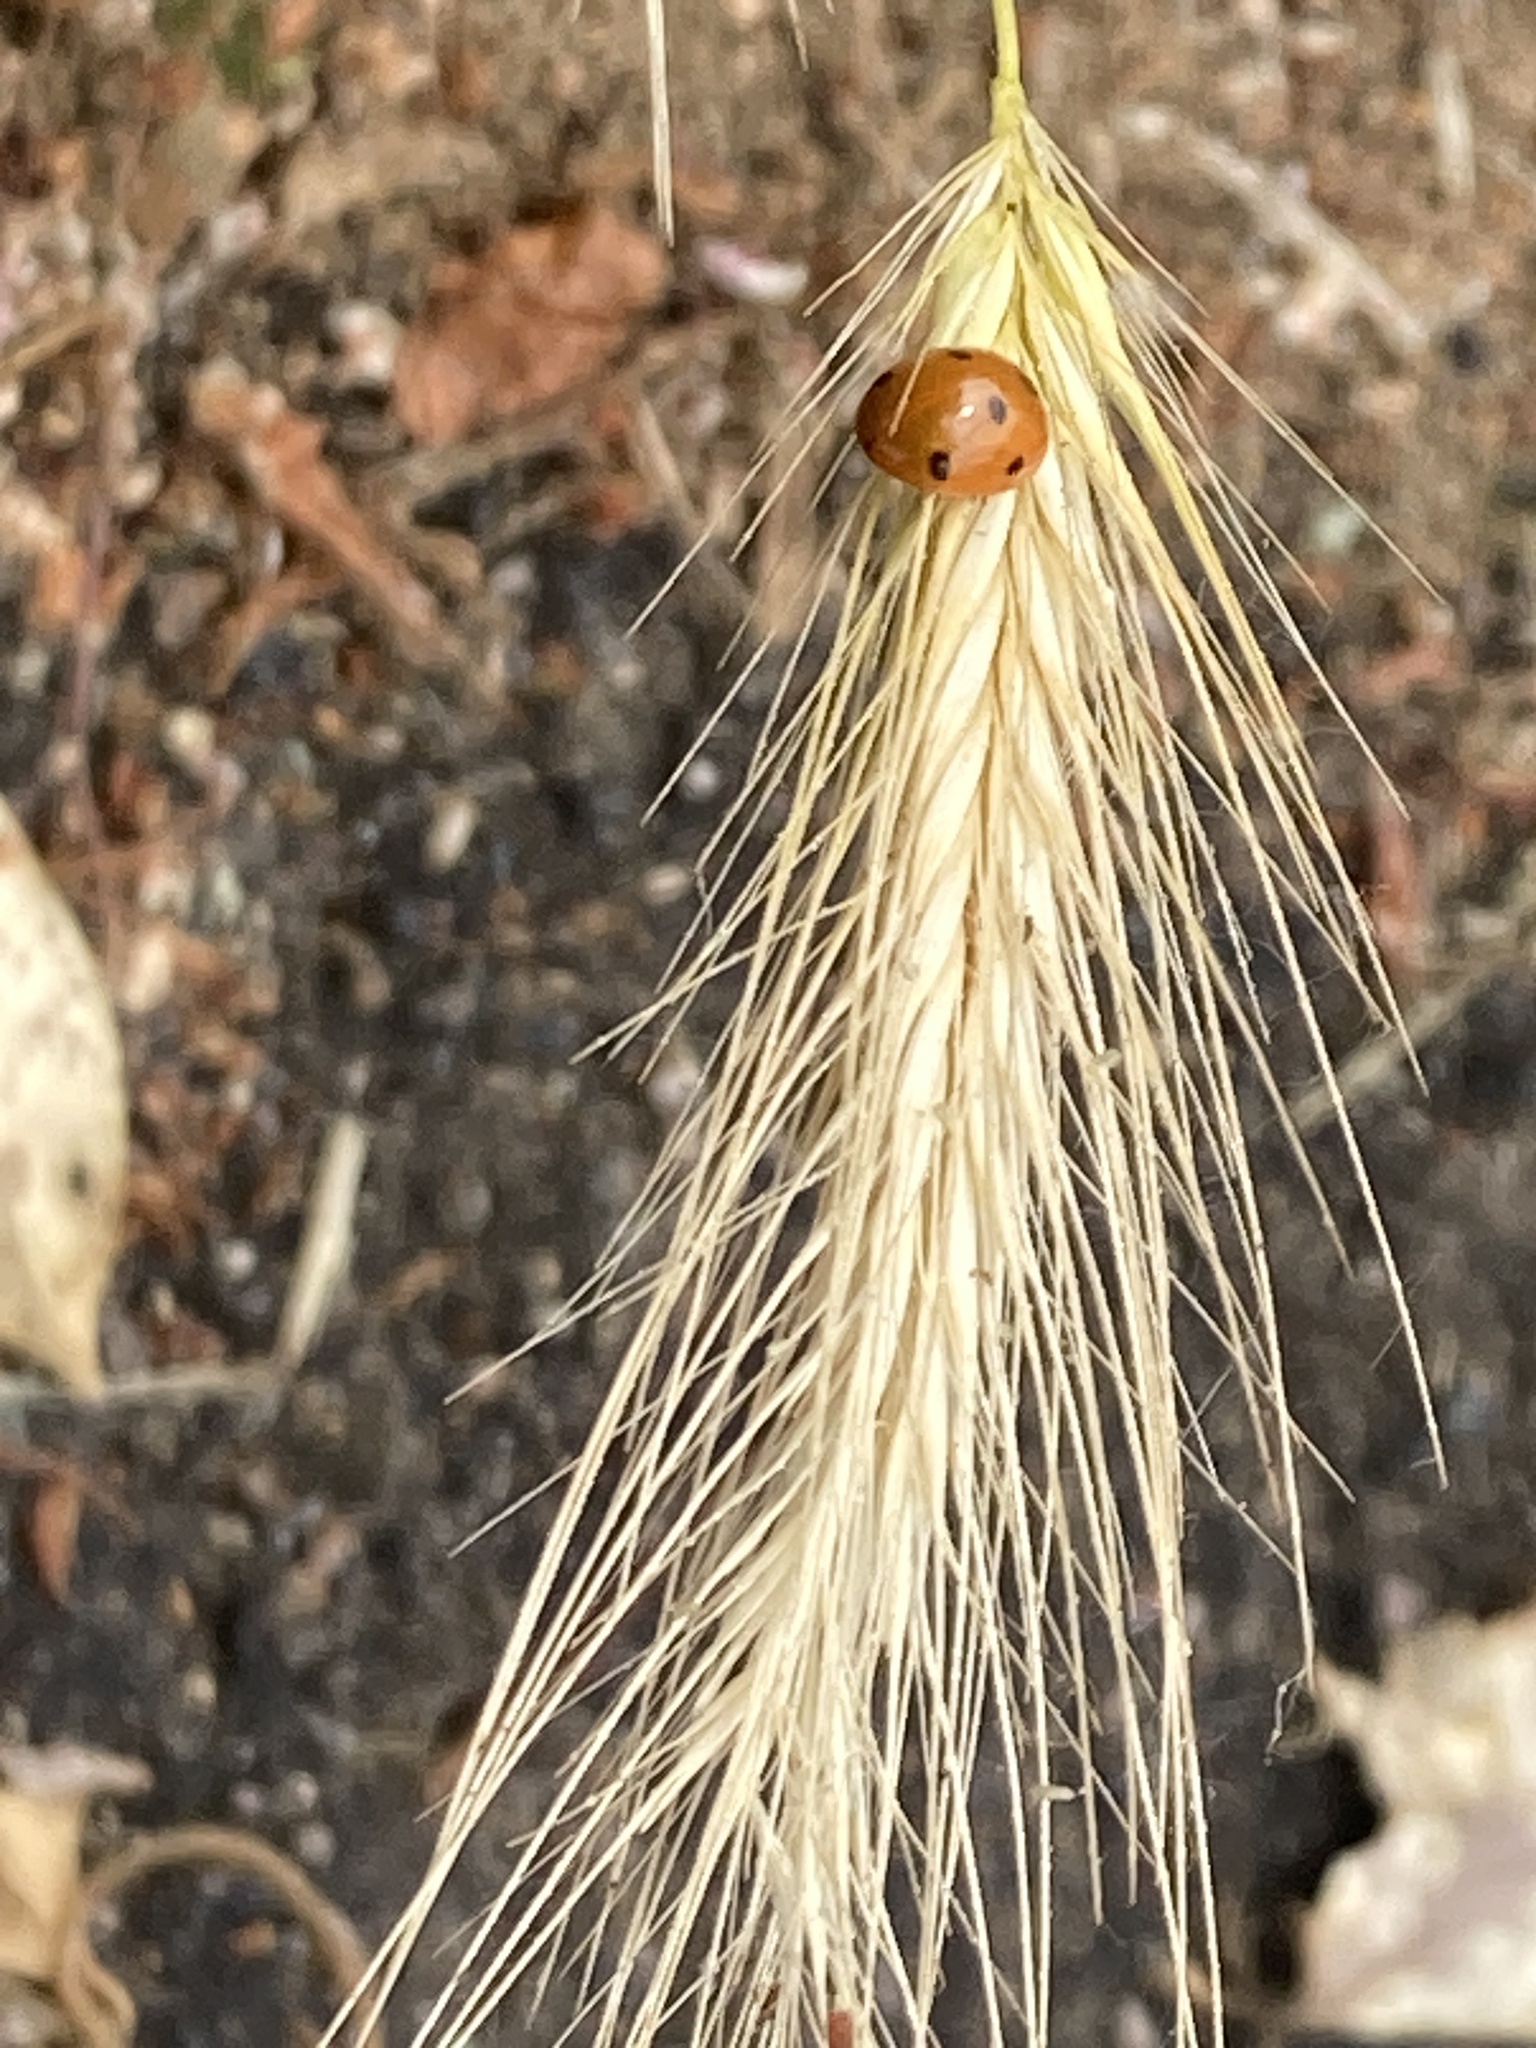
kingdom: Animalia
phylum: Arthropoda
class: Insecta
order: Coleoptera
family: Coccinellidae
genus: Coccinella
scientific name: Coccinella septempunctata
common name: Sevenspotted lady beetle
